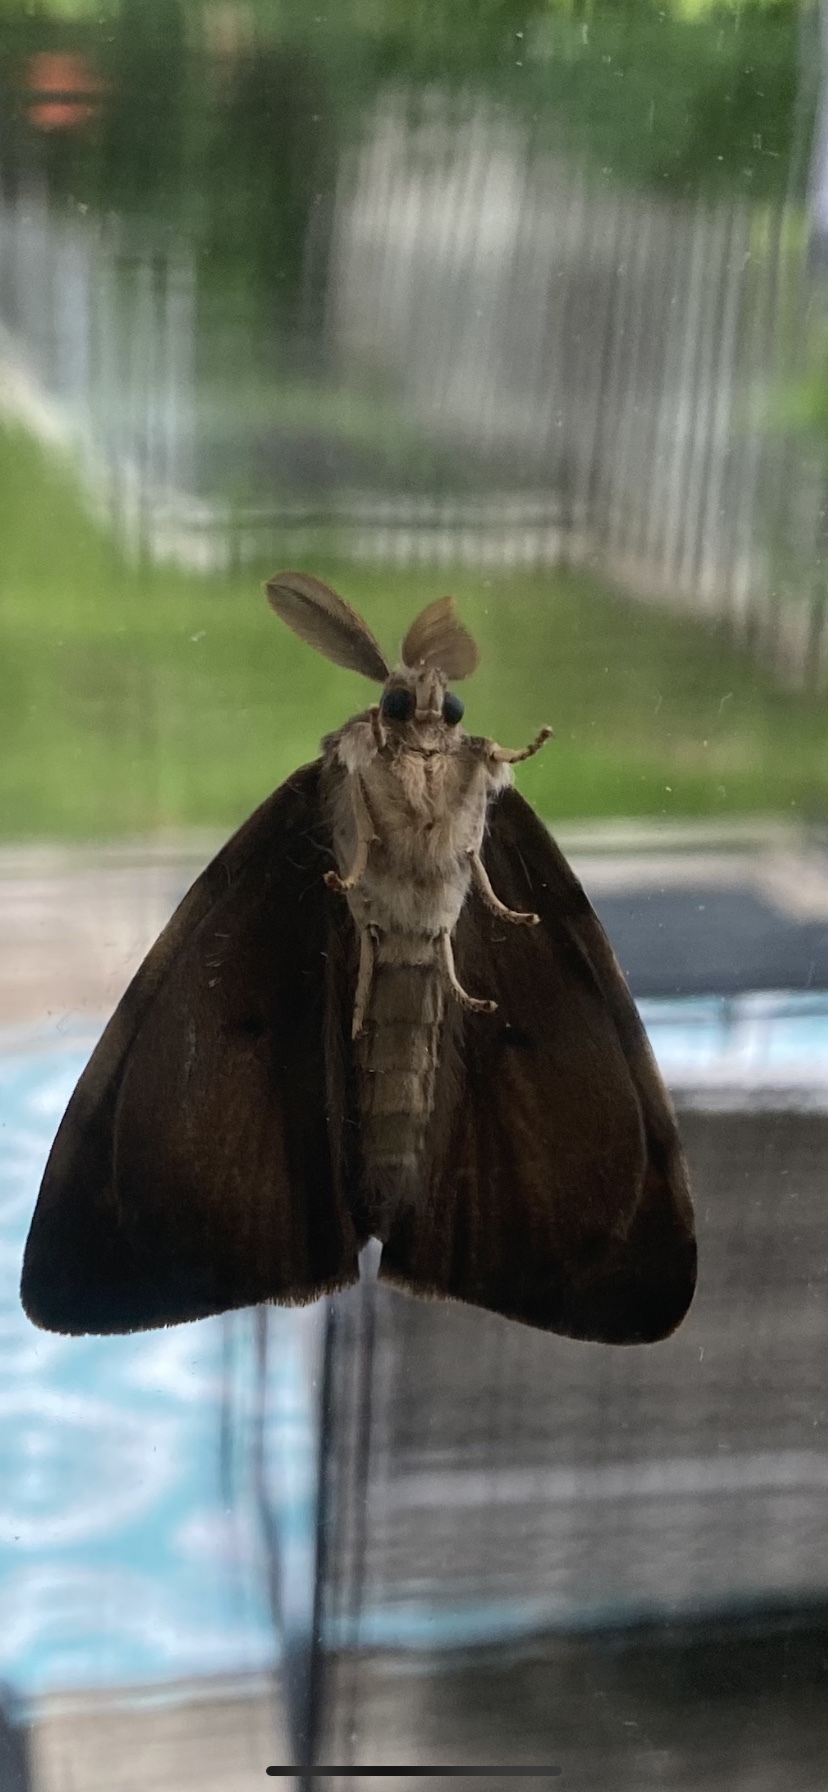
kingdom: Animalia
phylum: Arthropoda
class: Insecta
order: Lepidoptera
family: Erebidae
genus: Lymantria
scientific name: Lymantria dispar
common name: Gypsy moth
